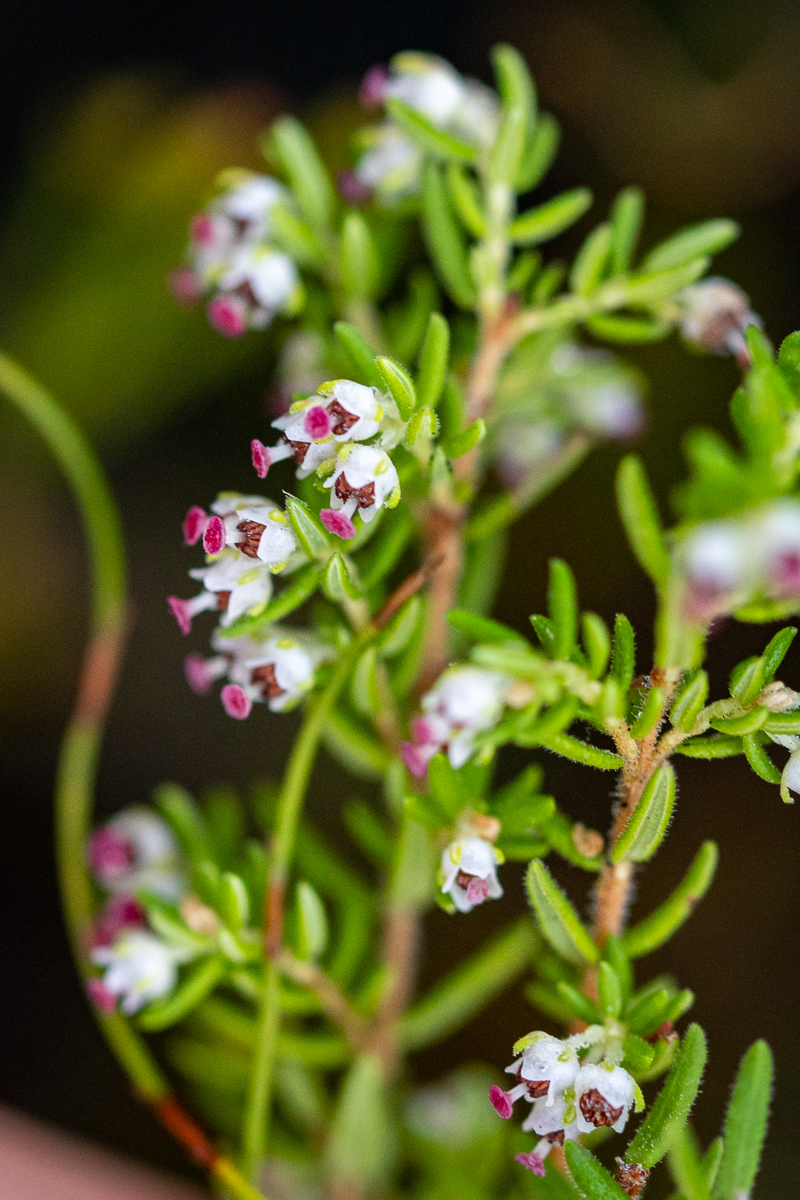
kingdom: Plantae
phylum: Tracheophyta
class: Magnoliopsida
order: Ericales
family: Ericaceae
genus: Erica
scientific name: Erica hispidula
